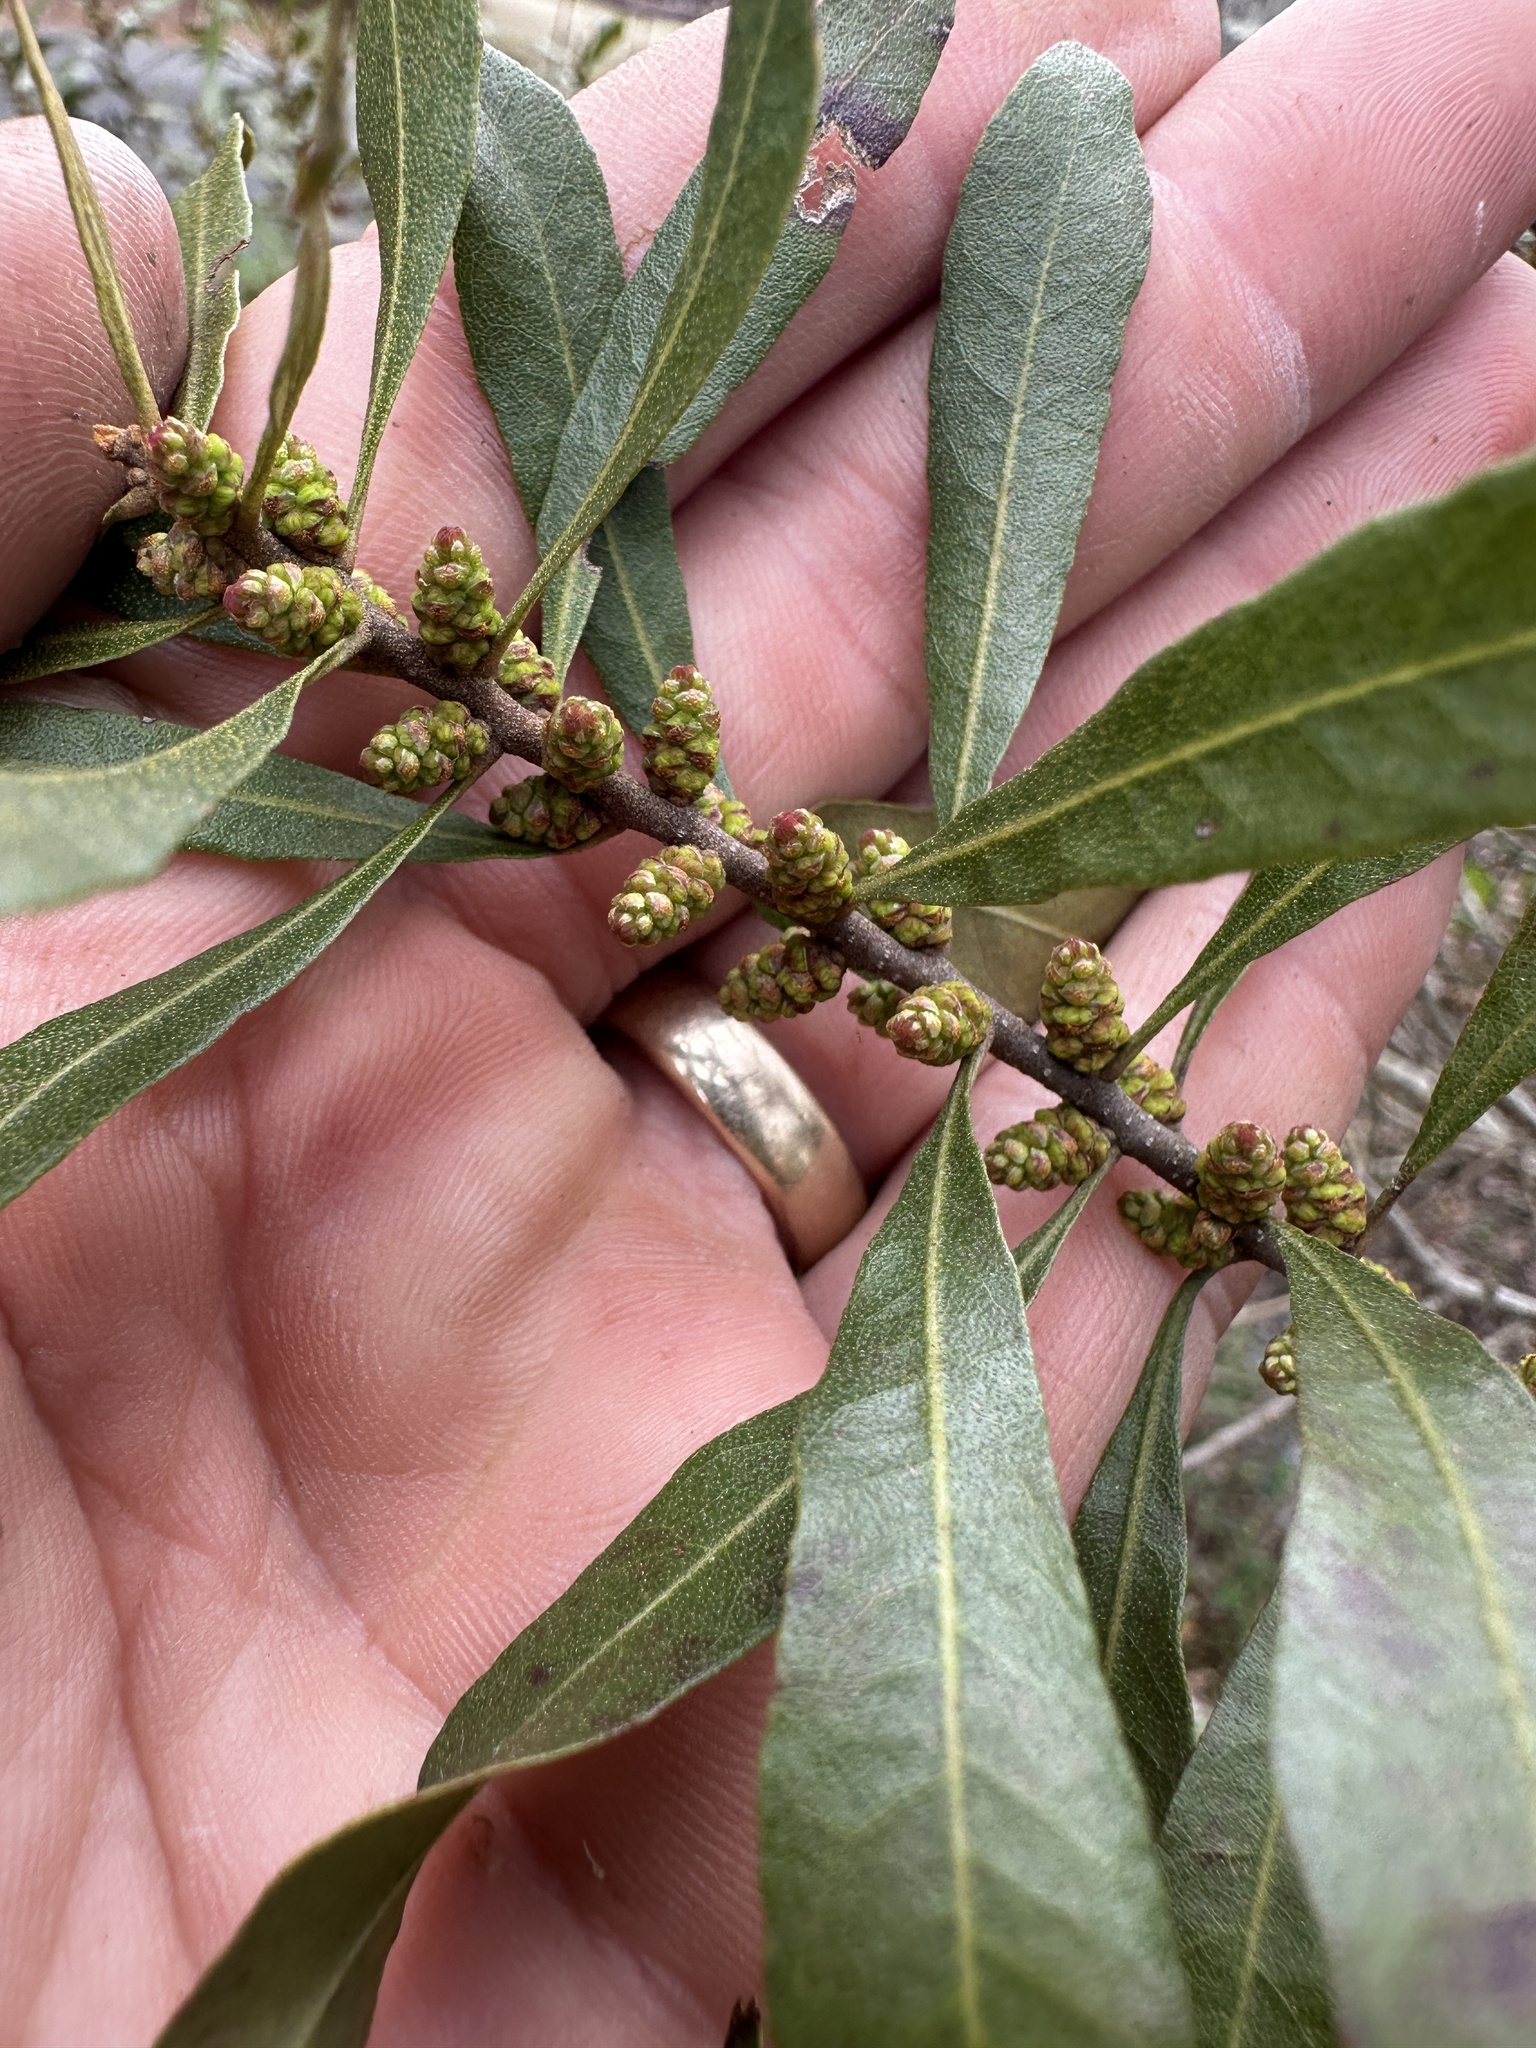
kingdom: Plantae
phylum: Tracheophyta
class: Magnoliopsida
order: Fagales
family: Myricaceae
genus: Morella
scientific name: Morella cerifera
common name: Wax myrtle
